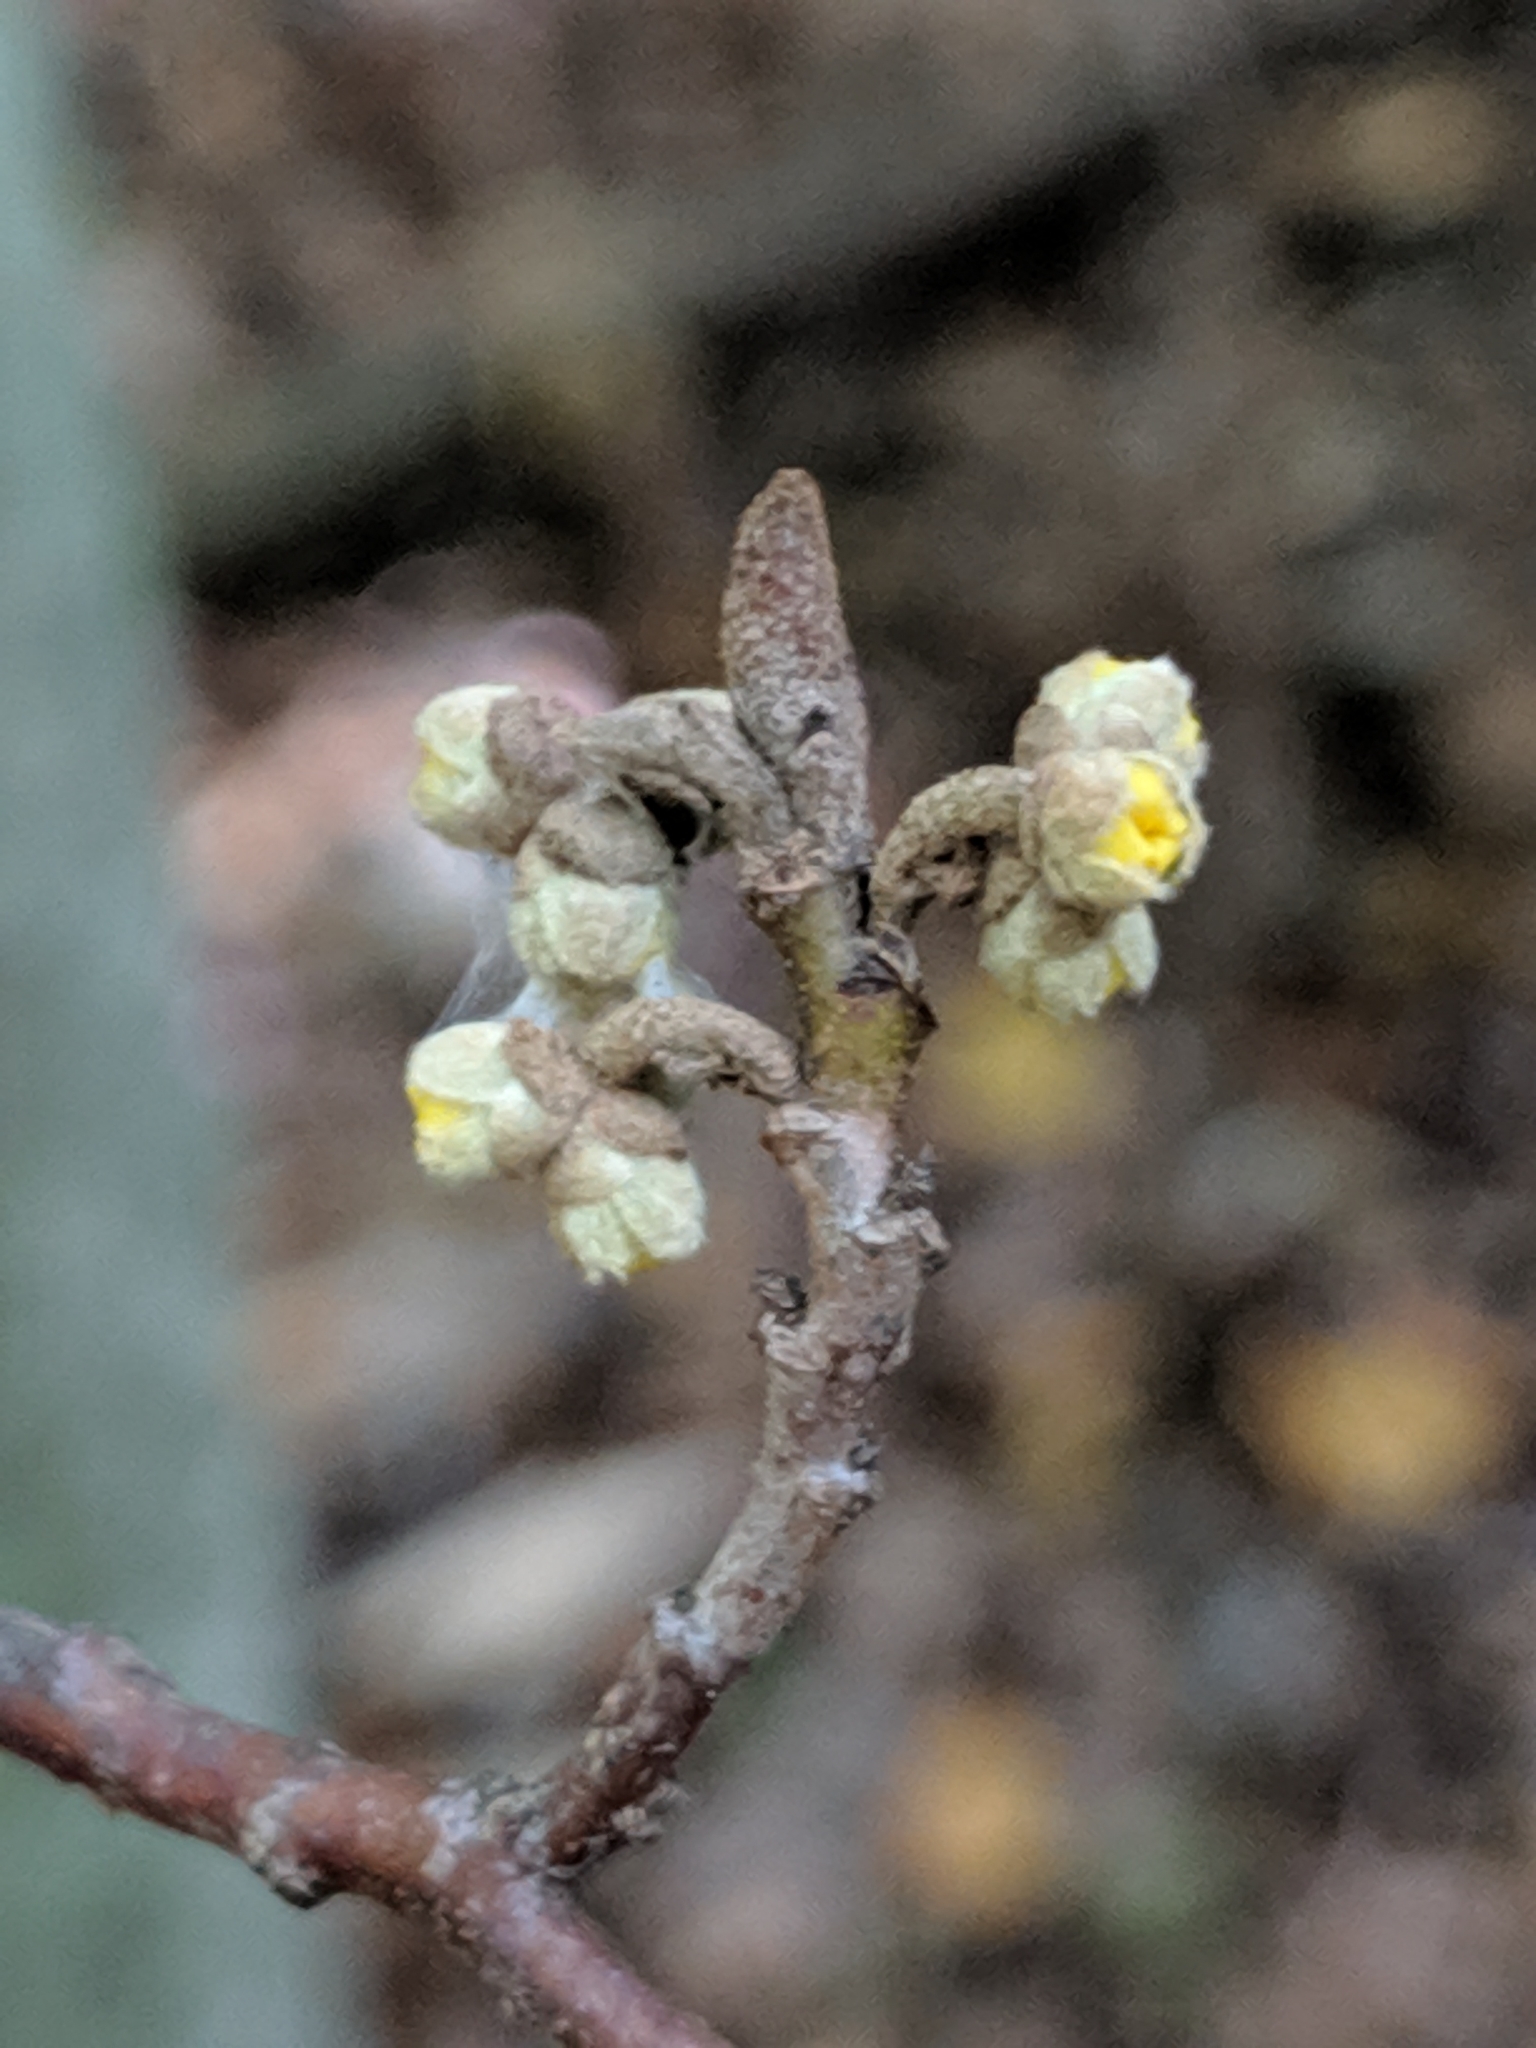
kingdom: Plantae
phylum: Tracheophyta
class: Magnoliopsida
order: Saxifragales
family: Hamamelidaceae
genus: Hamamelis
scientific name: Hamamelis virginiana
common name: Witch-hazel
